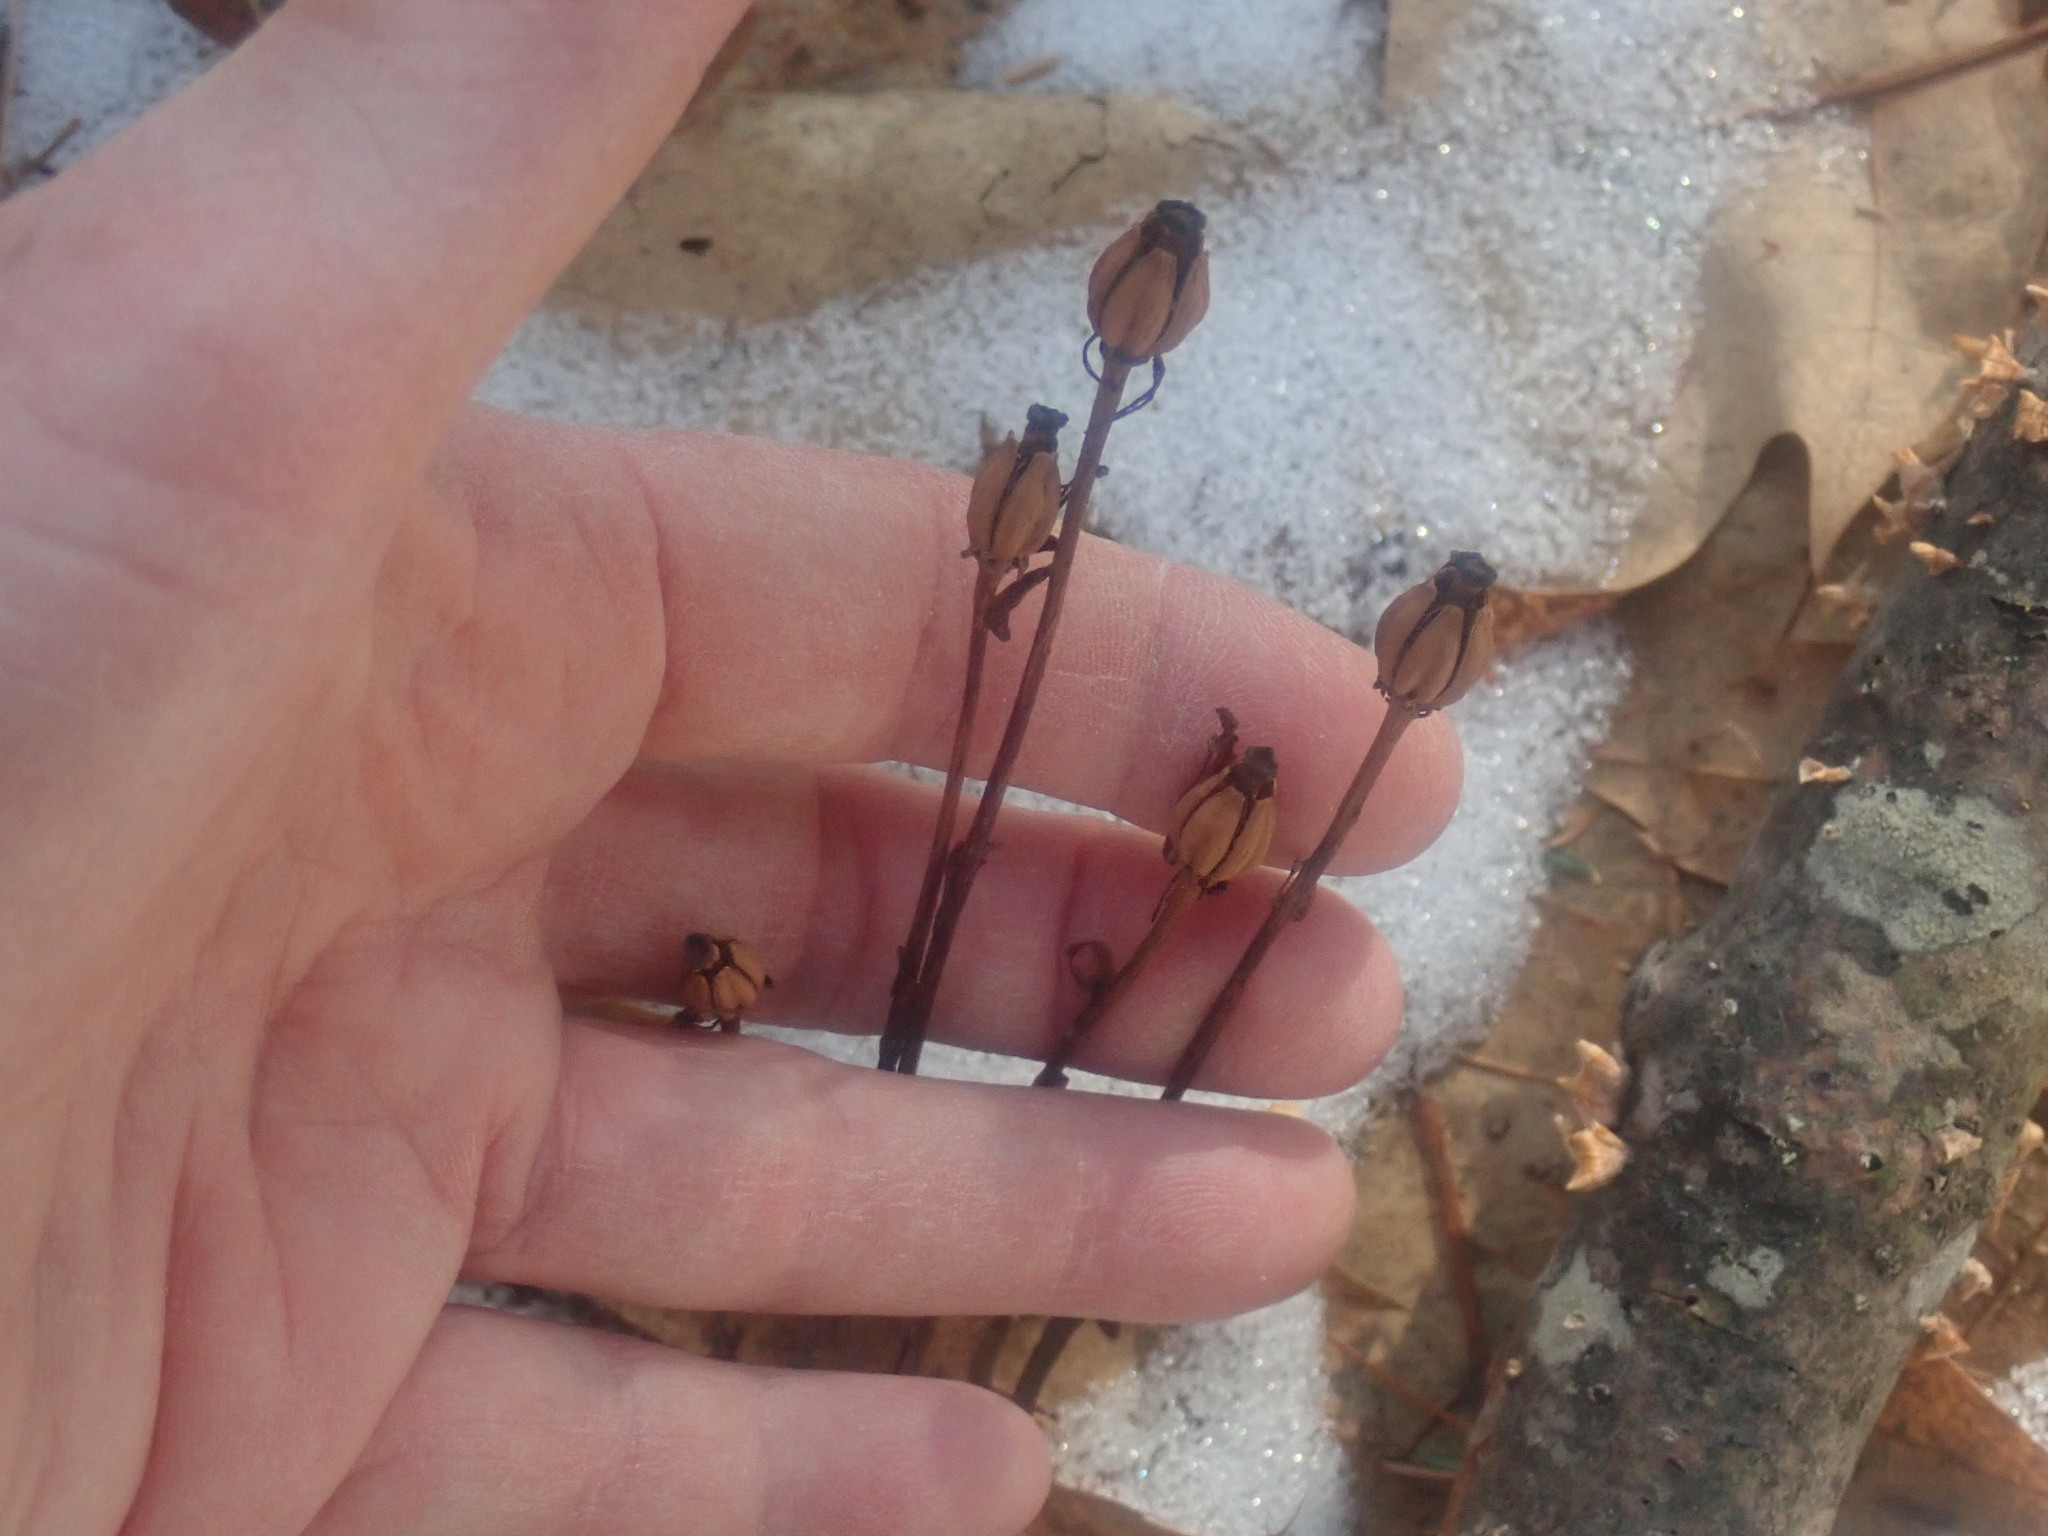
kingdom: Plantae
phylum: Tracheophyta
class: Magnoliopsida
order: Ericales
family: Ericaceae
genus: Monotropa
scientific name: Monotropa uniflora
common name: Convulsion root
